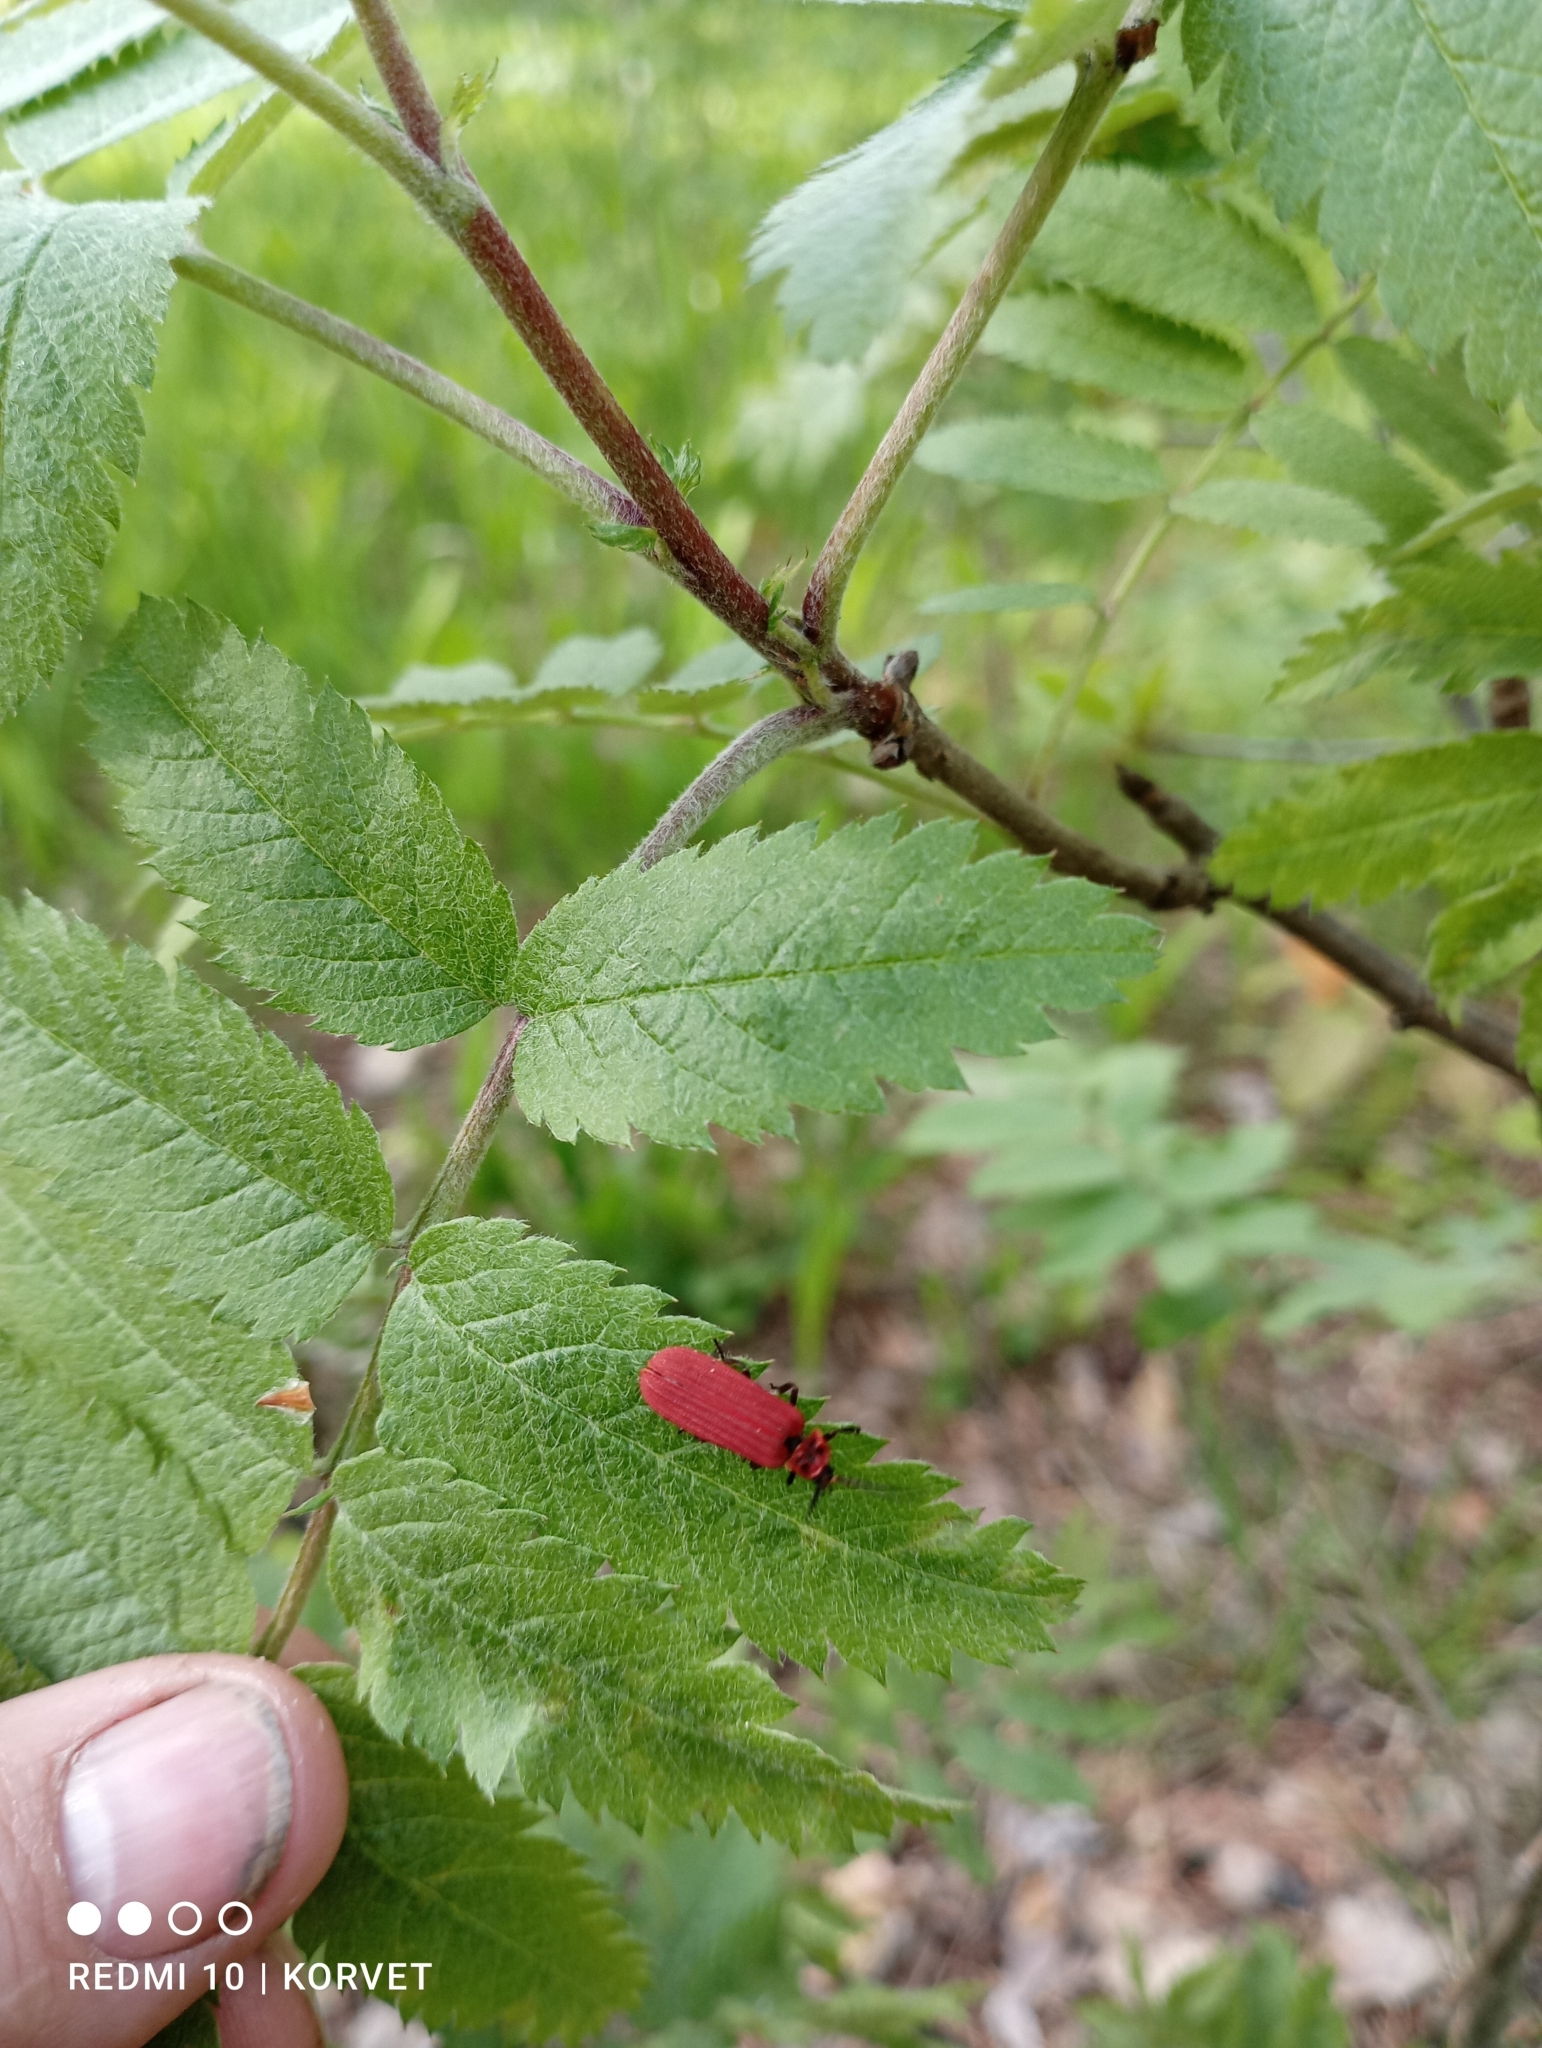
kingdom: Animalia
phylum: Arthropoda
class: Insecta
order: Coleoptera
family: Lycidae
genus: Dictyoptera
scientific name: Dictyoptera aurora
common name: Golden net-winged beetle
